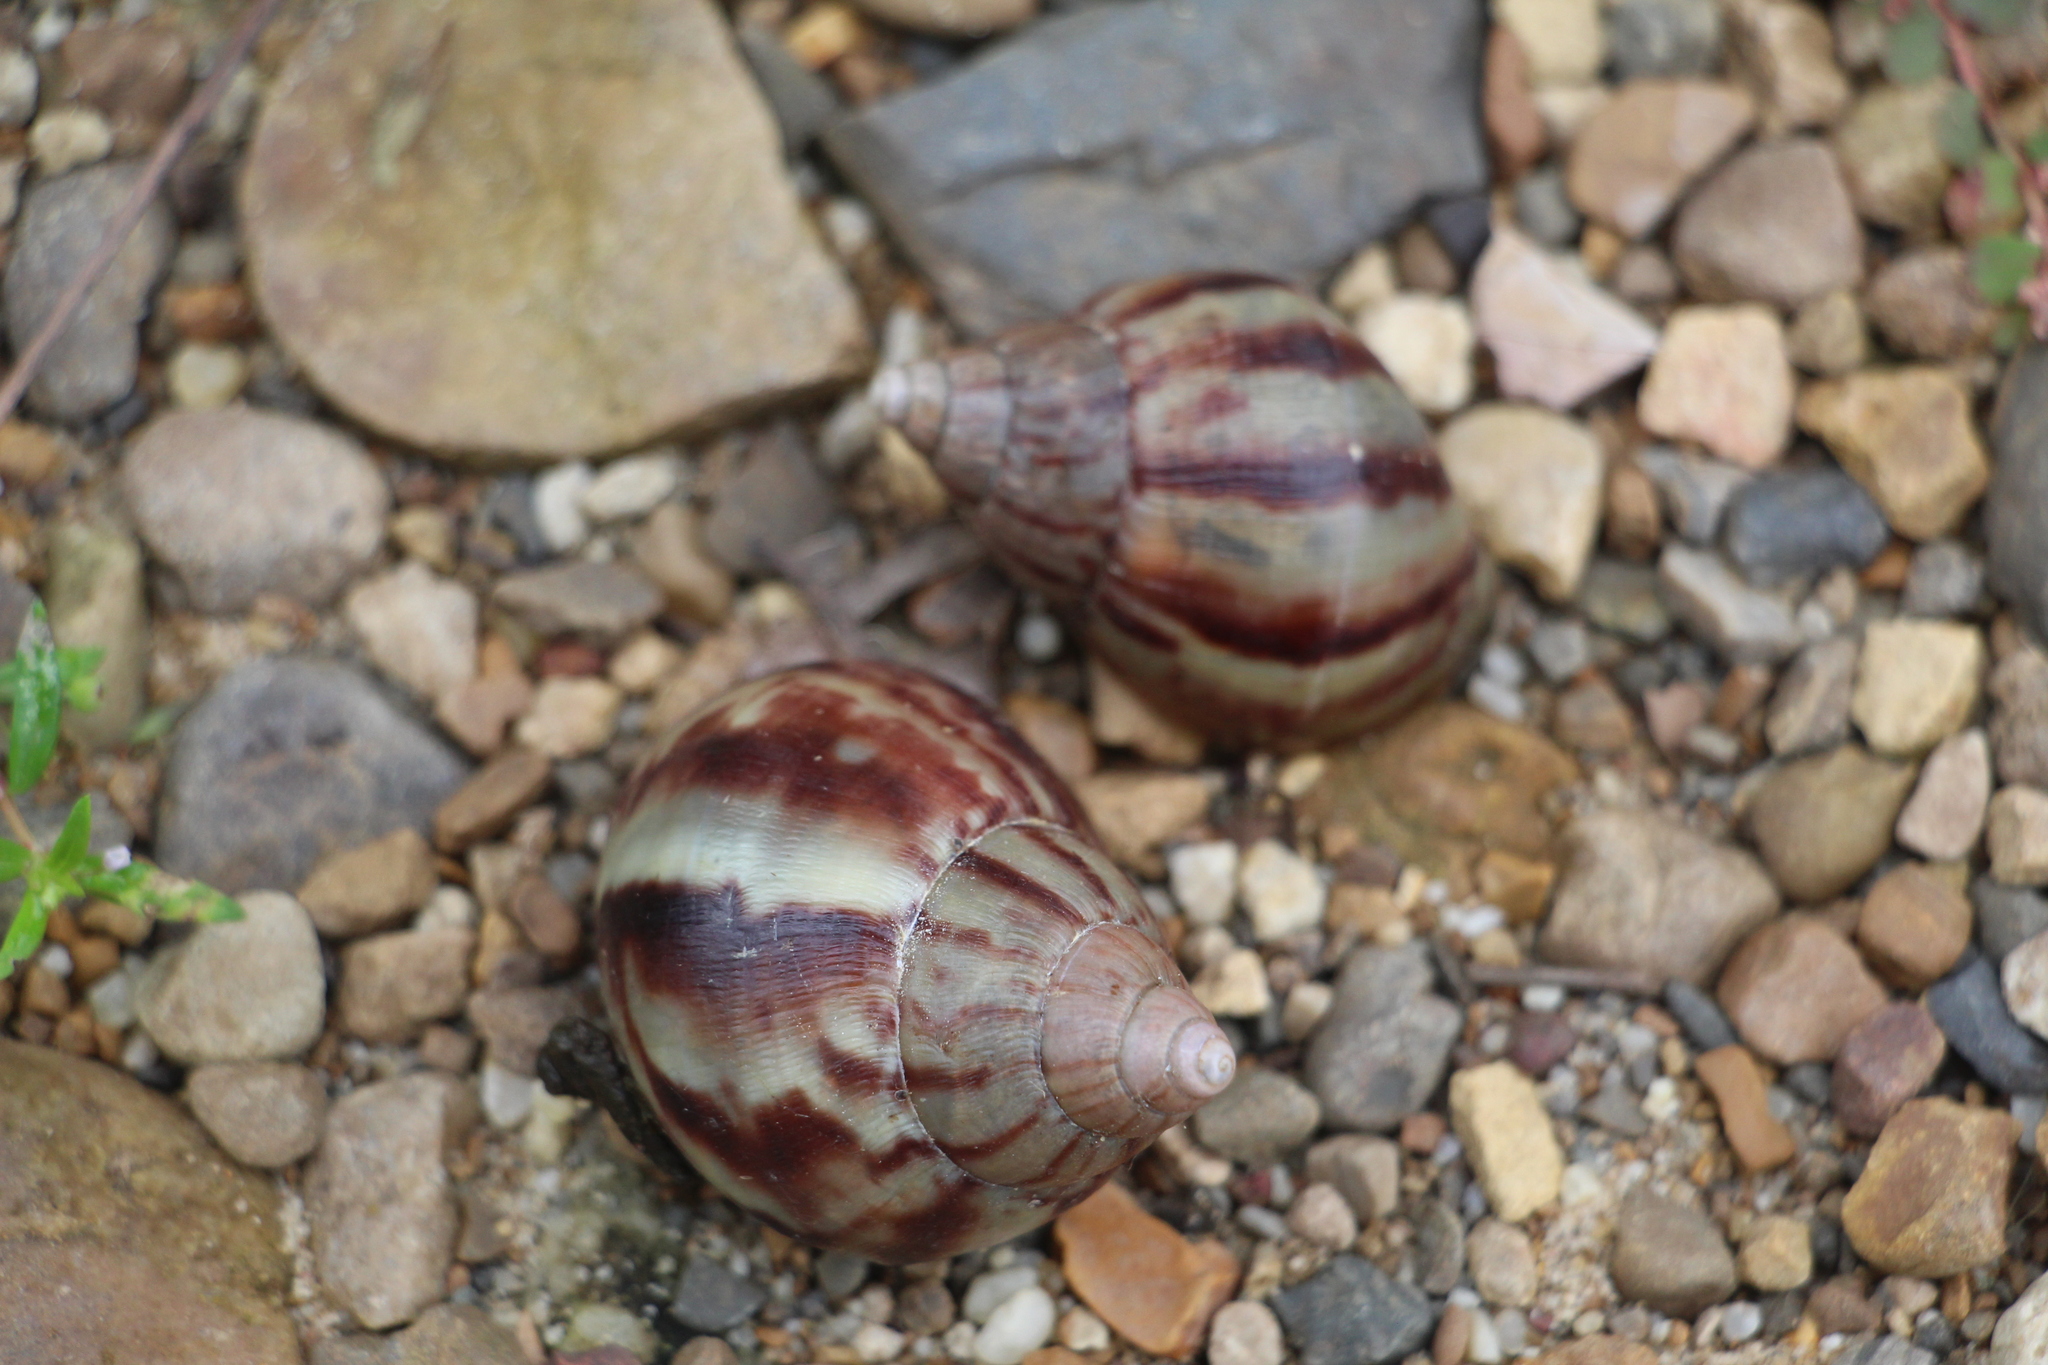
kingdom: Animalia
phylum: Mollusca
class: Gastropoda
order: Stylommatophora
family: Achatinidae
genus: Lissachatina
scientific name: Lissachatina fulica
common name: Giant african snail
